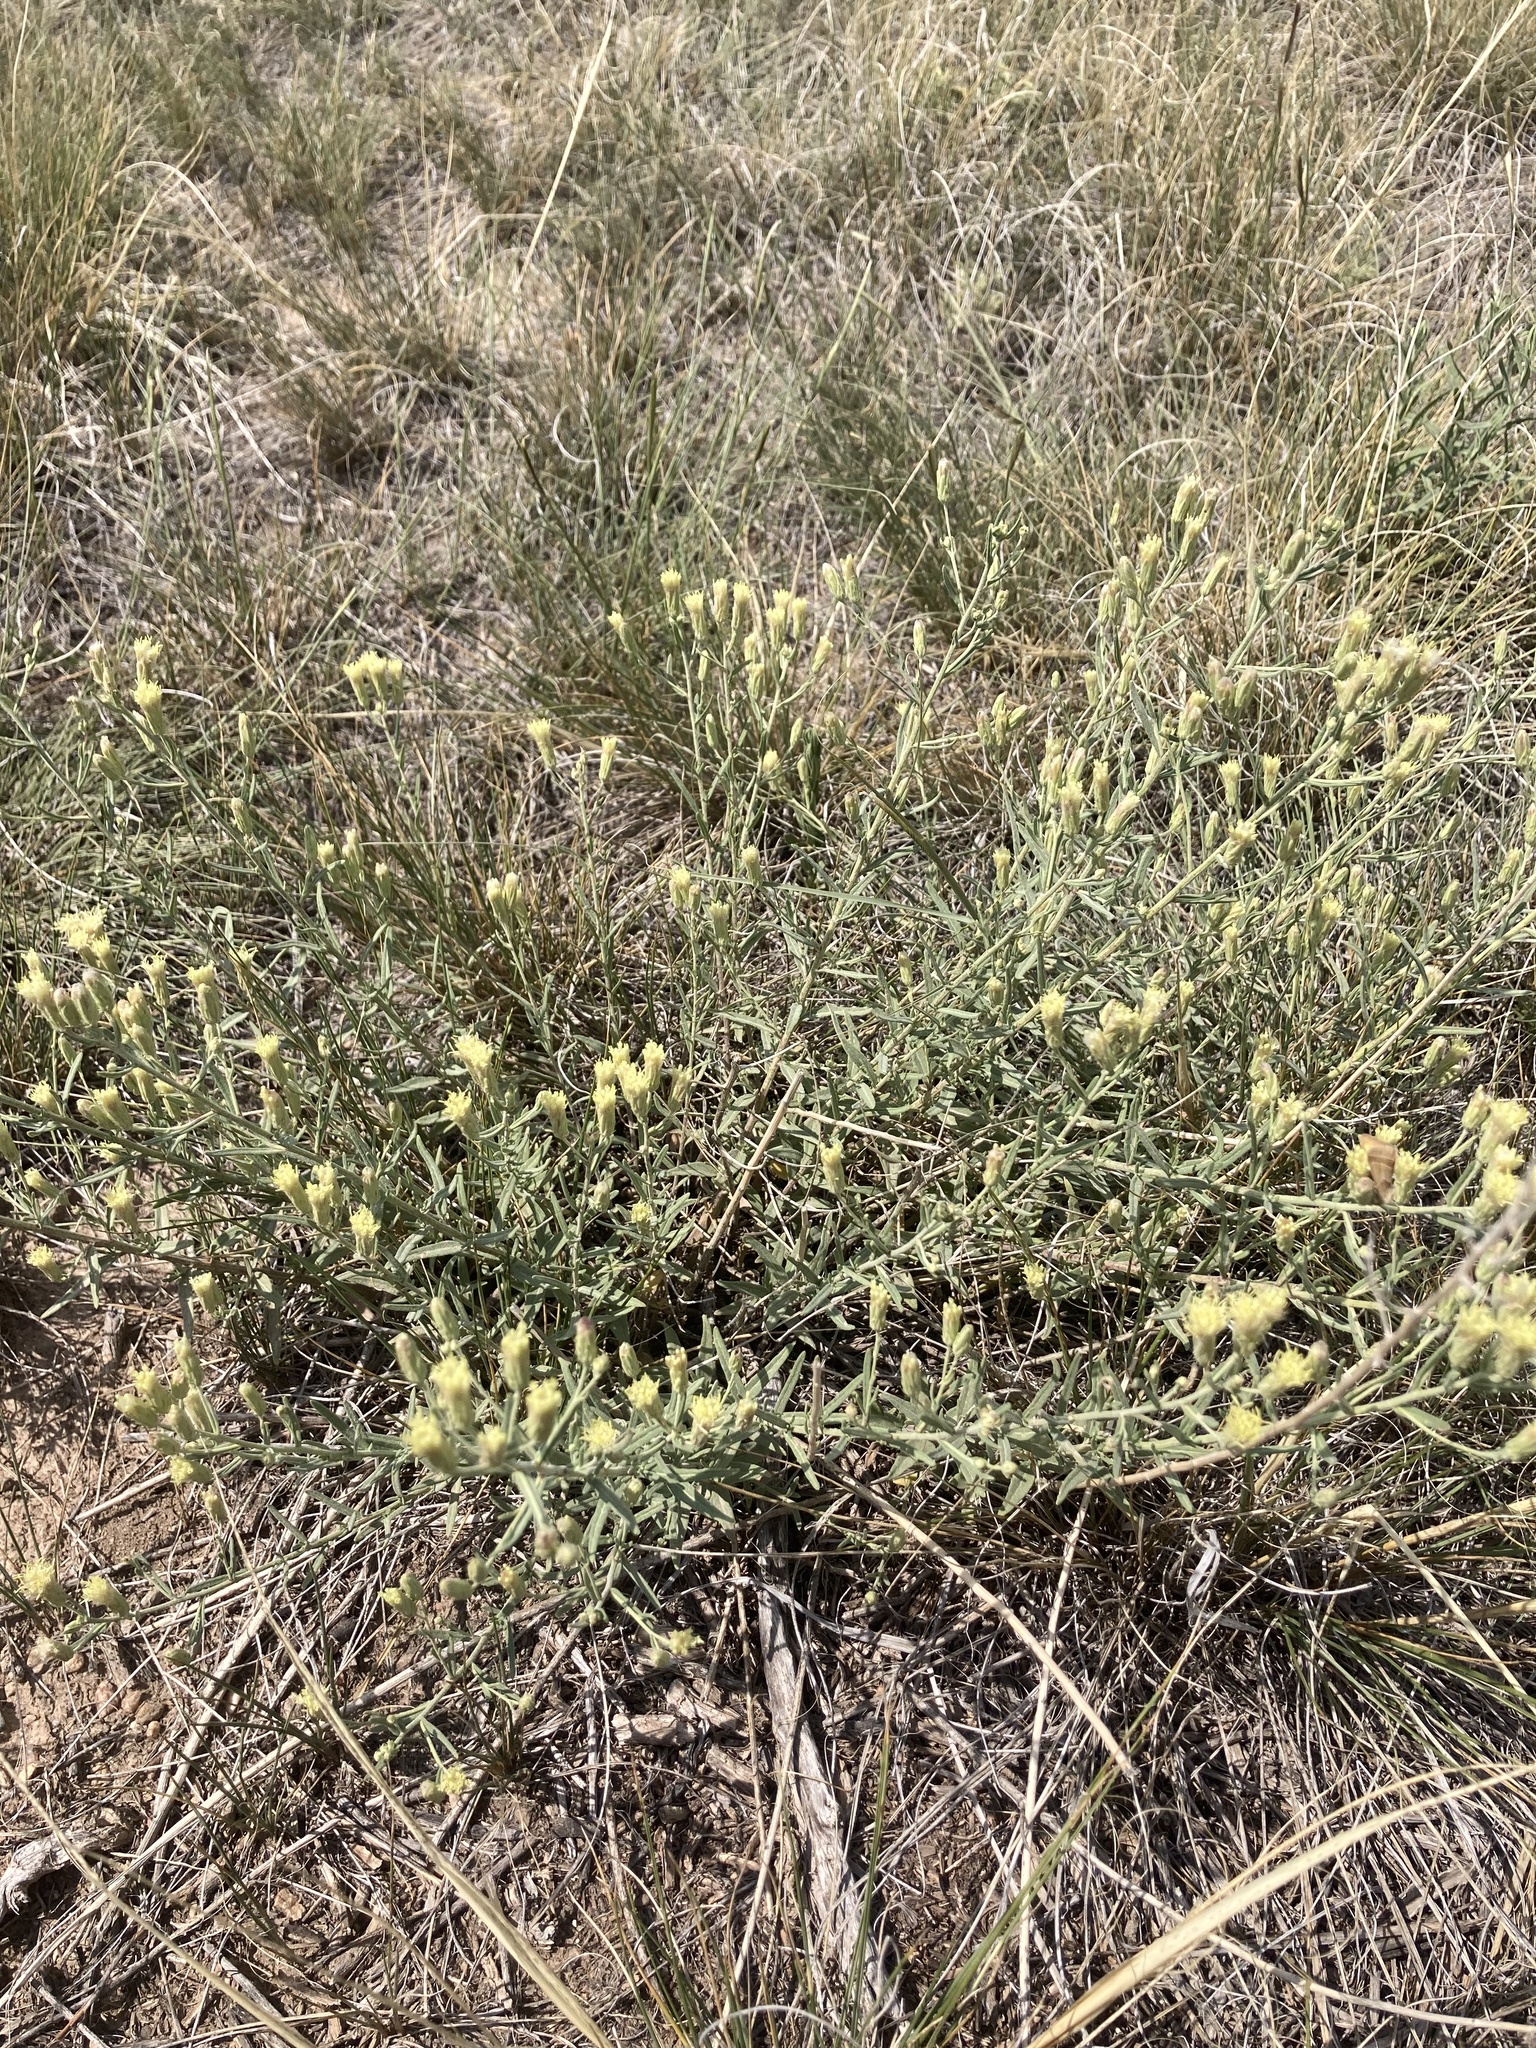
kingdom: Plantae
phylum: Tracheophyta
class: Magnoliopsida
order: Asterales
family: Asteraceae
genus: Brickellia
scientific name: Brickellia eupatorioides
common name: False boneset
